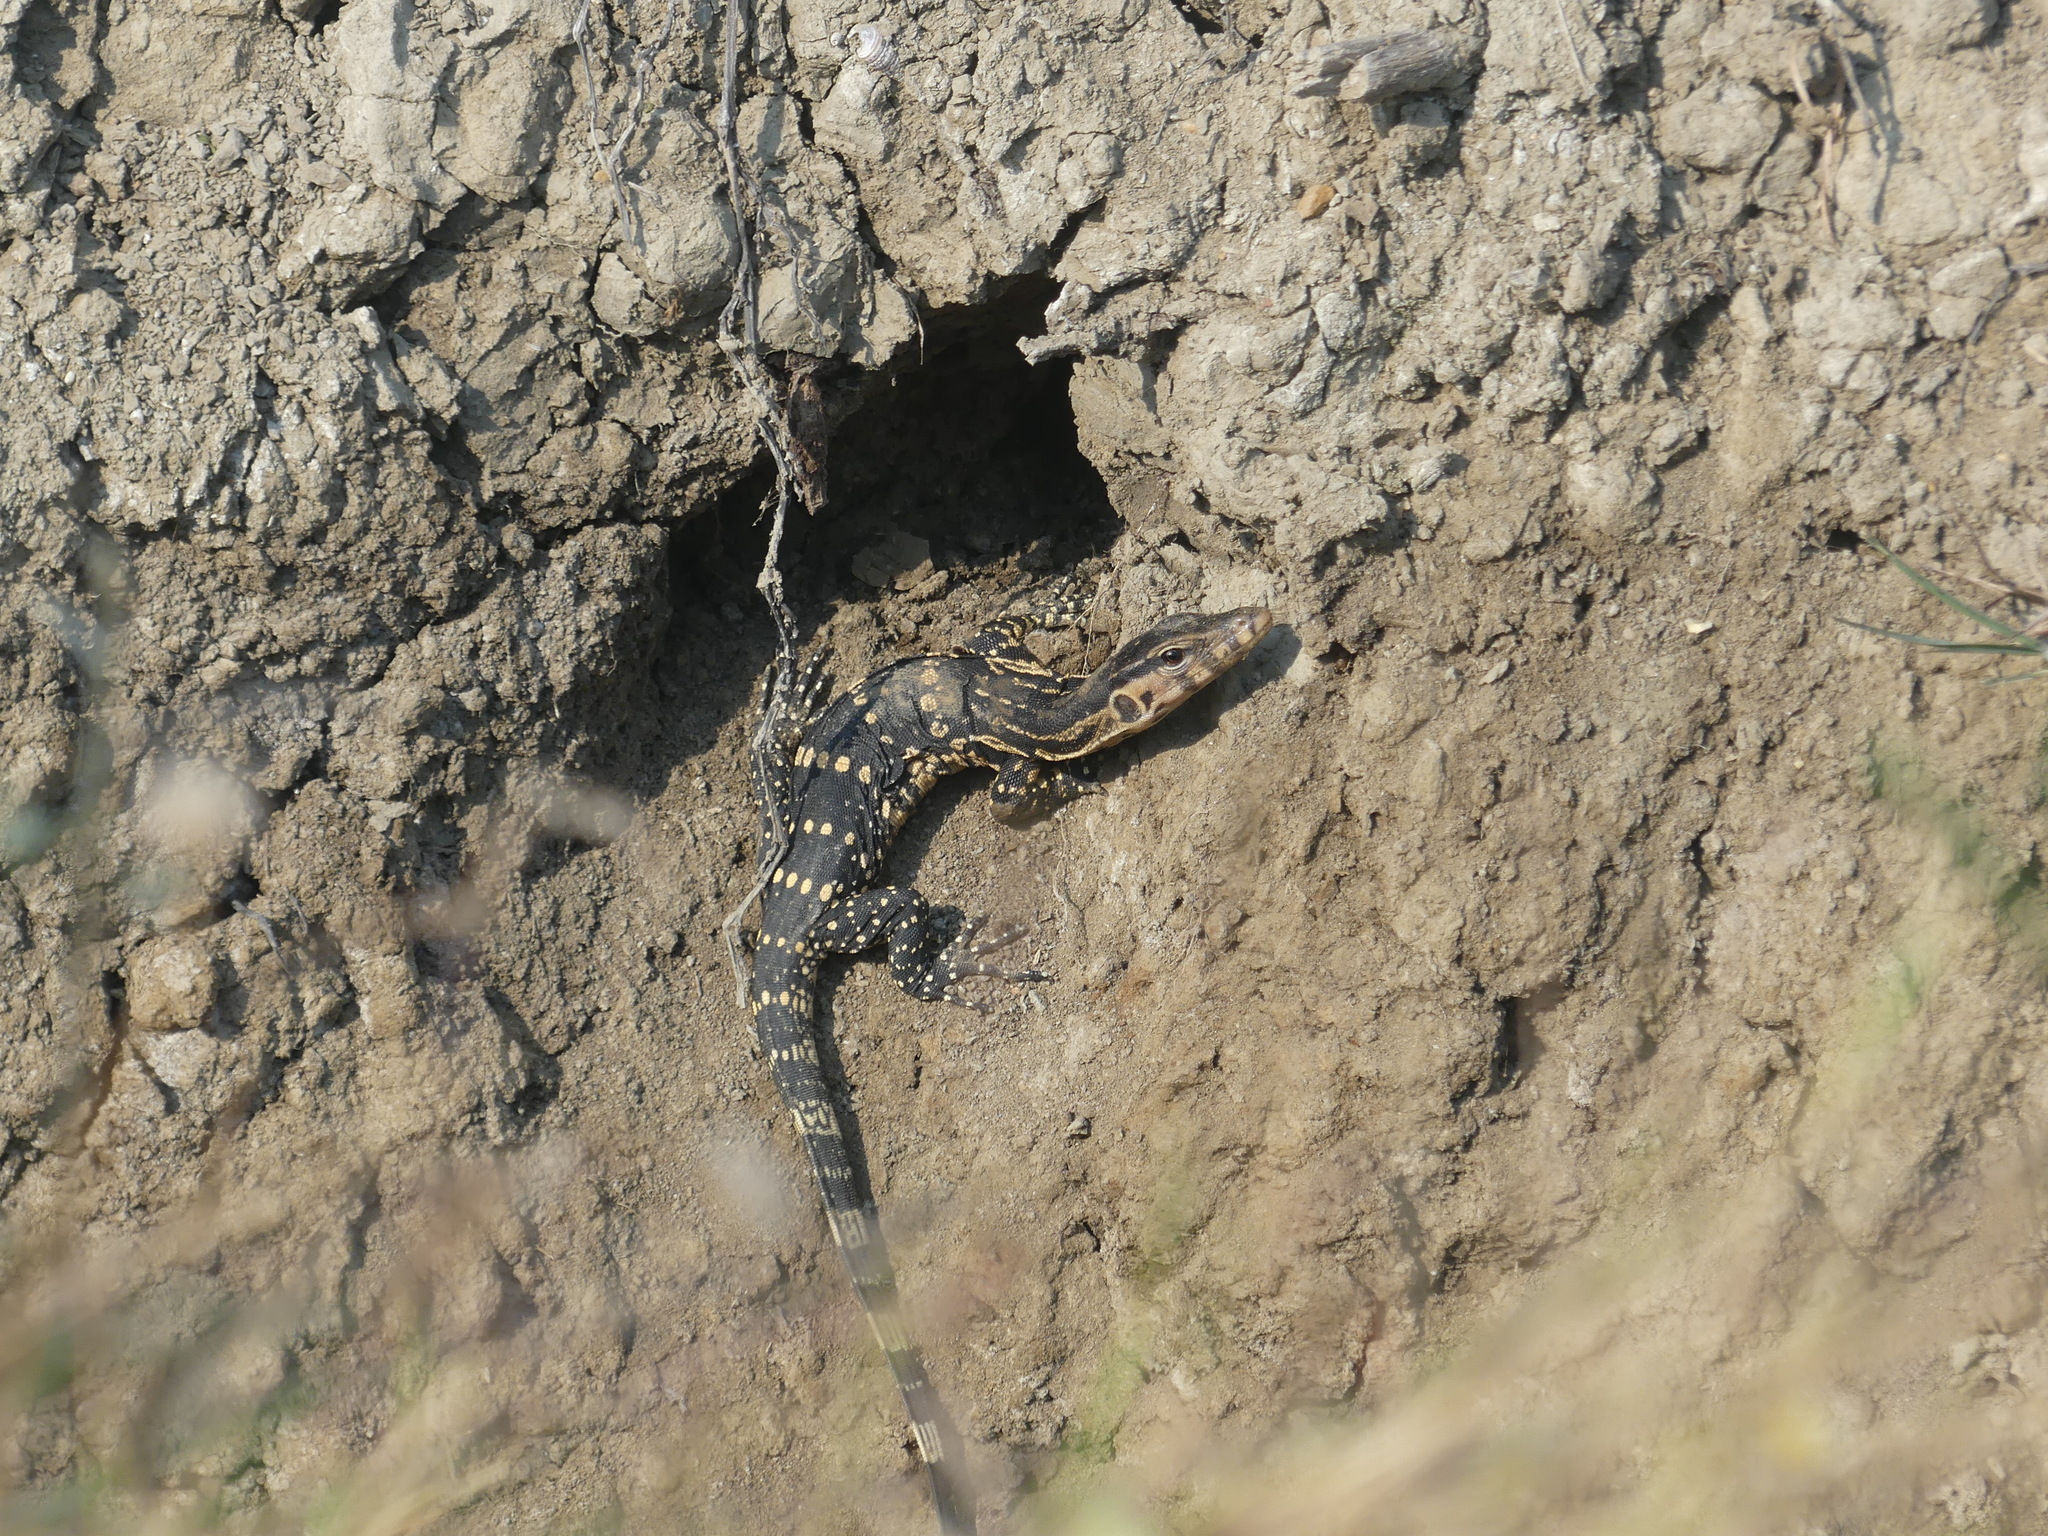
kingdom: Animalia
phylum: Chordata
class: Squamata
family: Varanidae
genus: Varanus
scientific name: Varanus salvator
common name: Common water monitor
